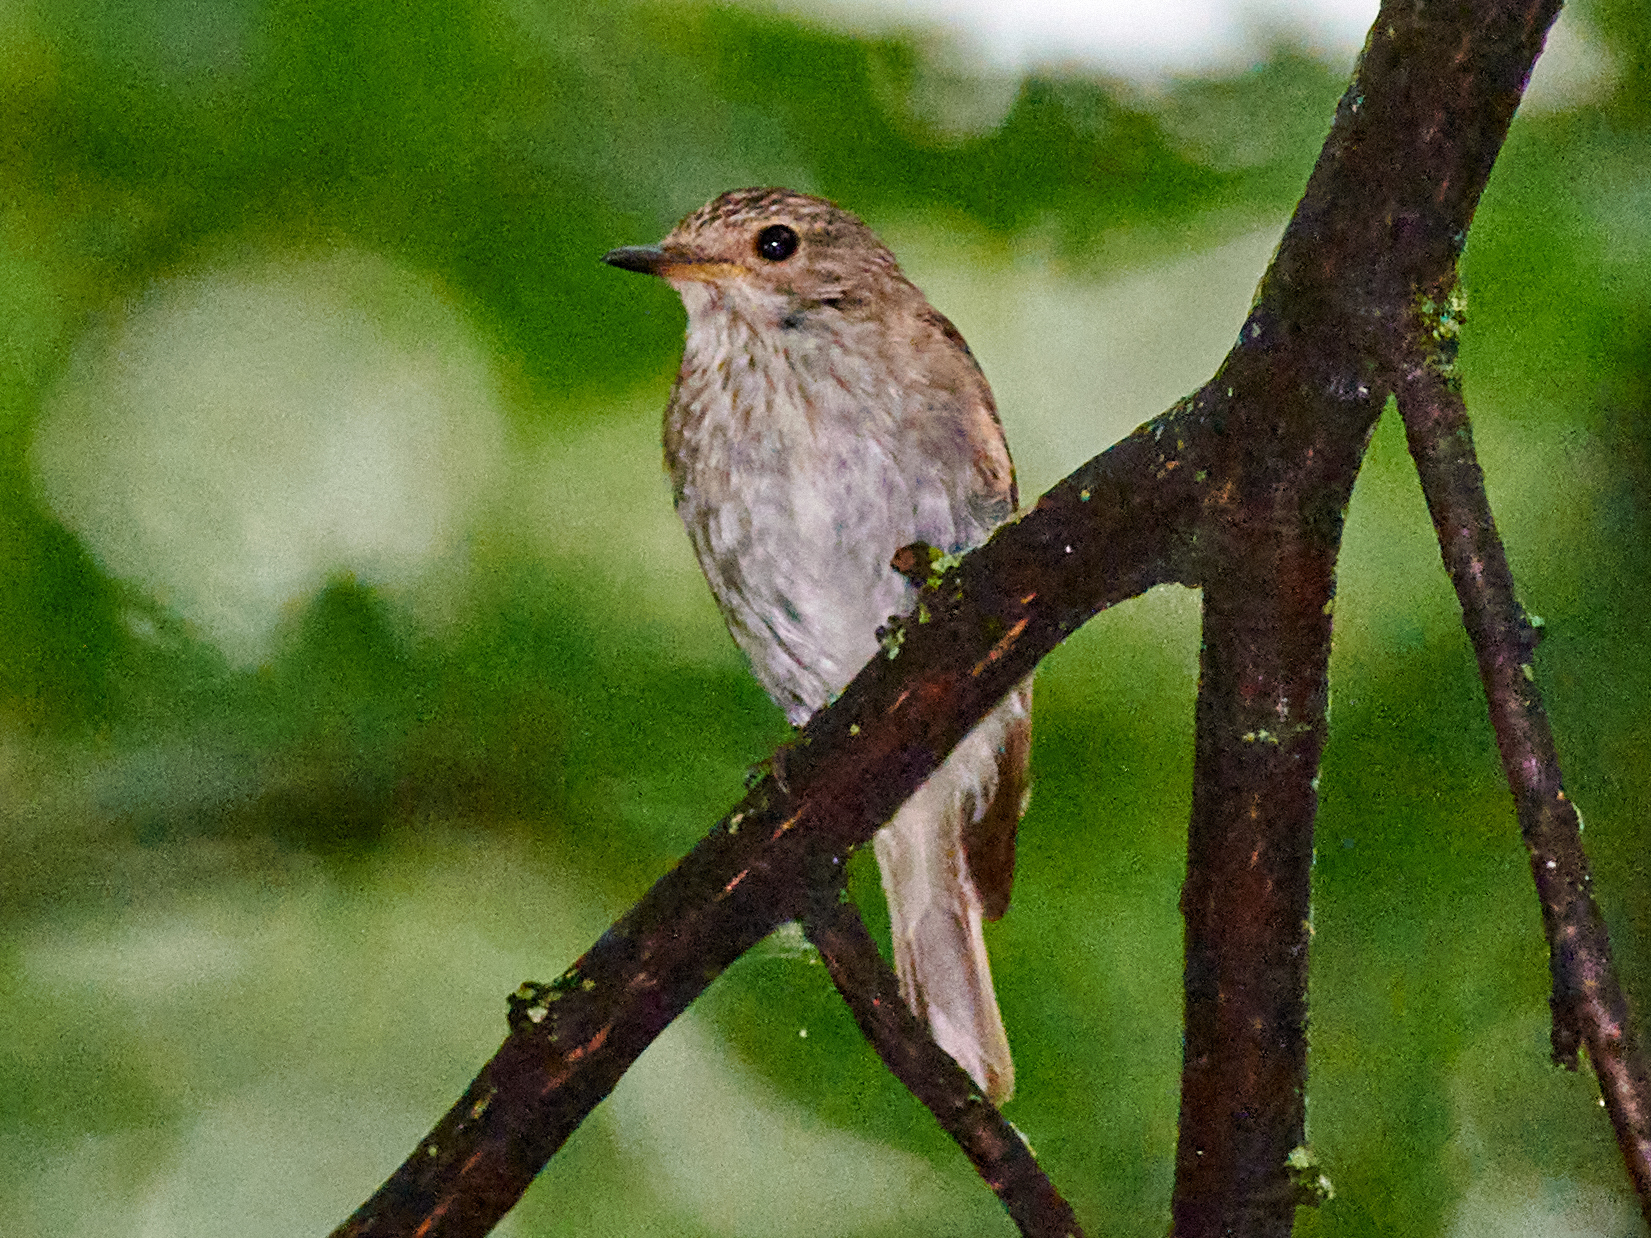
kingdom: Animalia
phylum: Chordata
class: Aves
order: Passeriformes
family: Muscicapidae
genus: Muscicapa
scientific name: Muscicapa striata
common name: Spotted flycatcher
